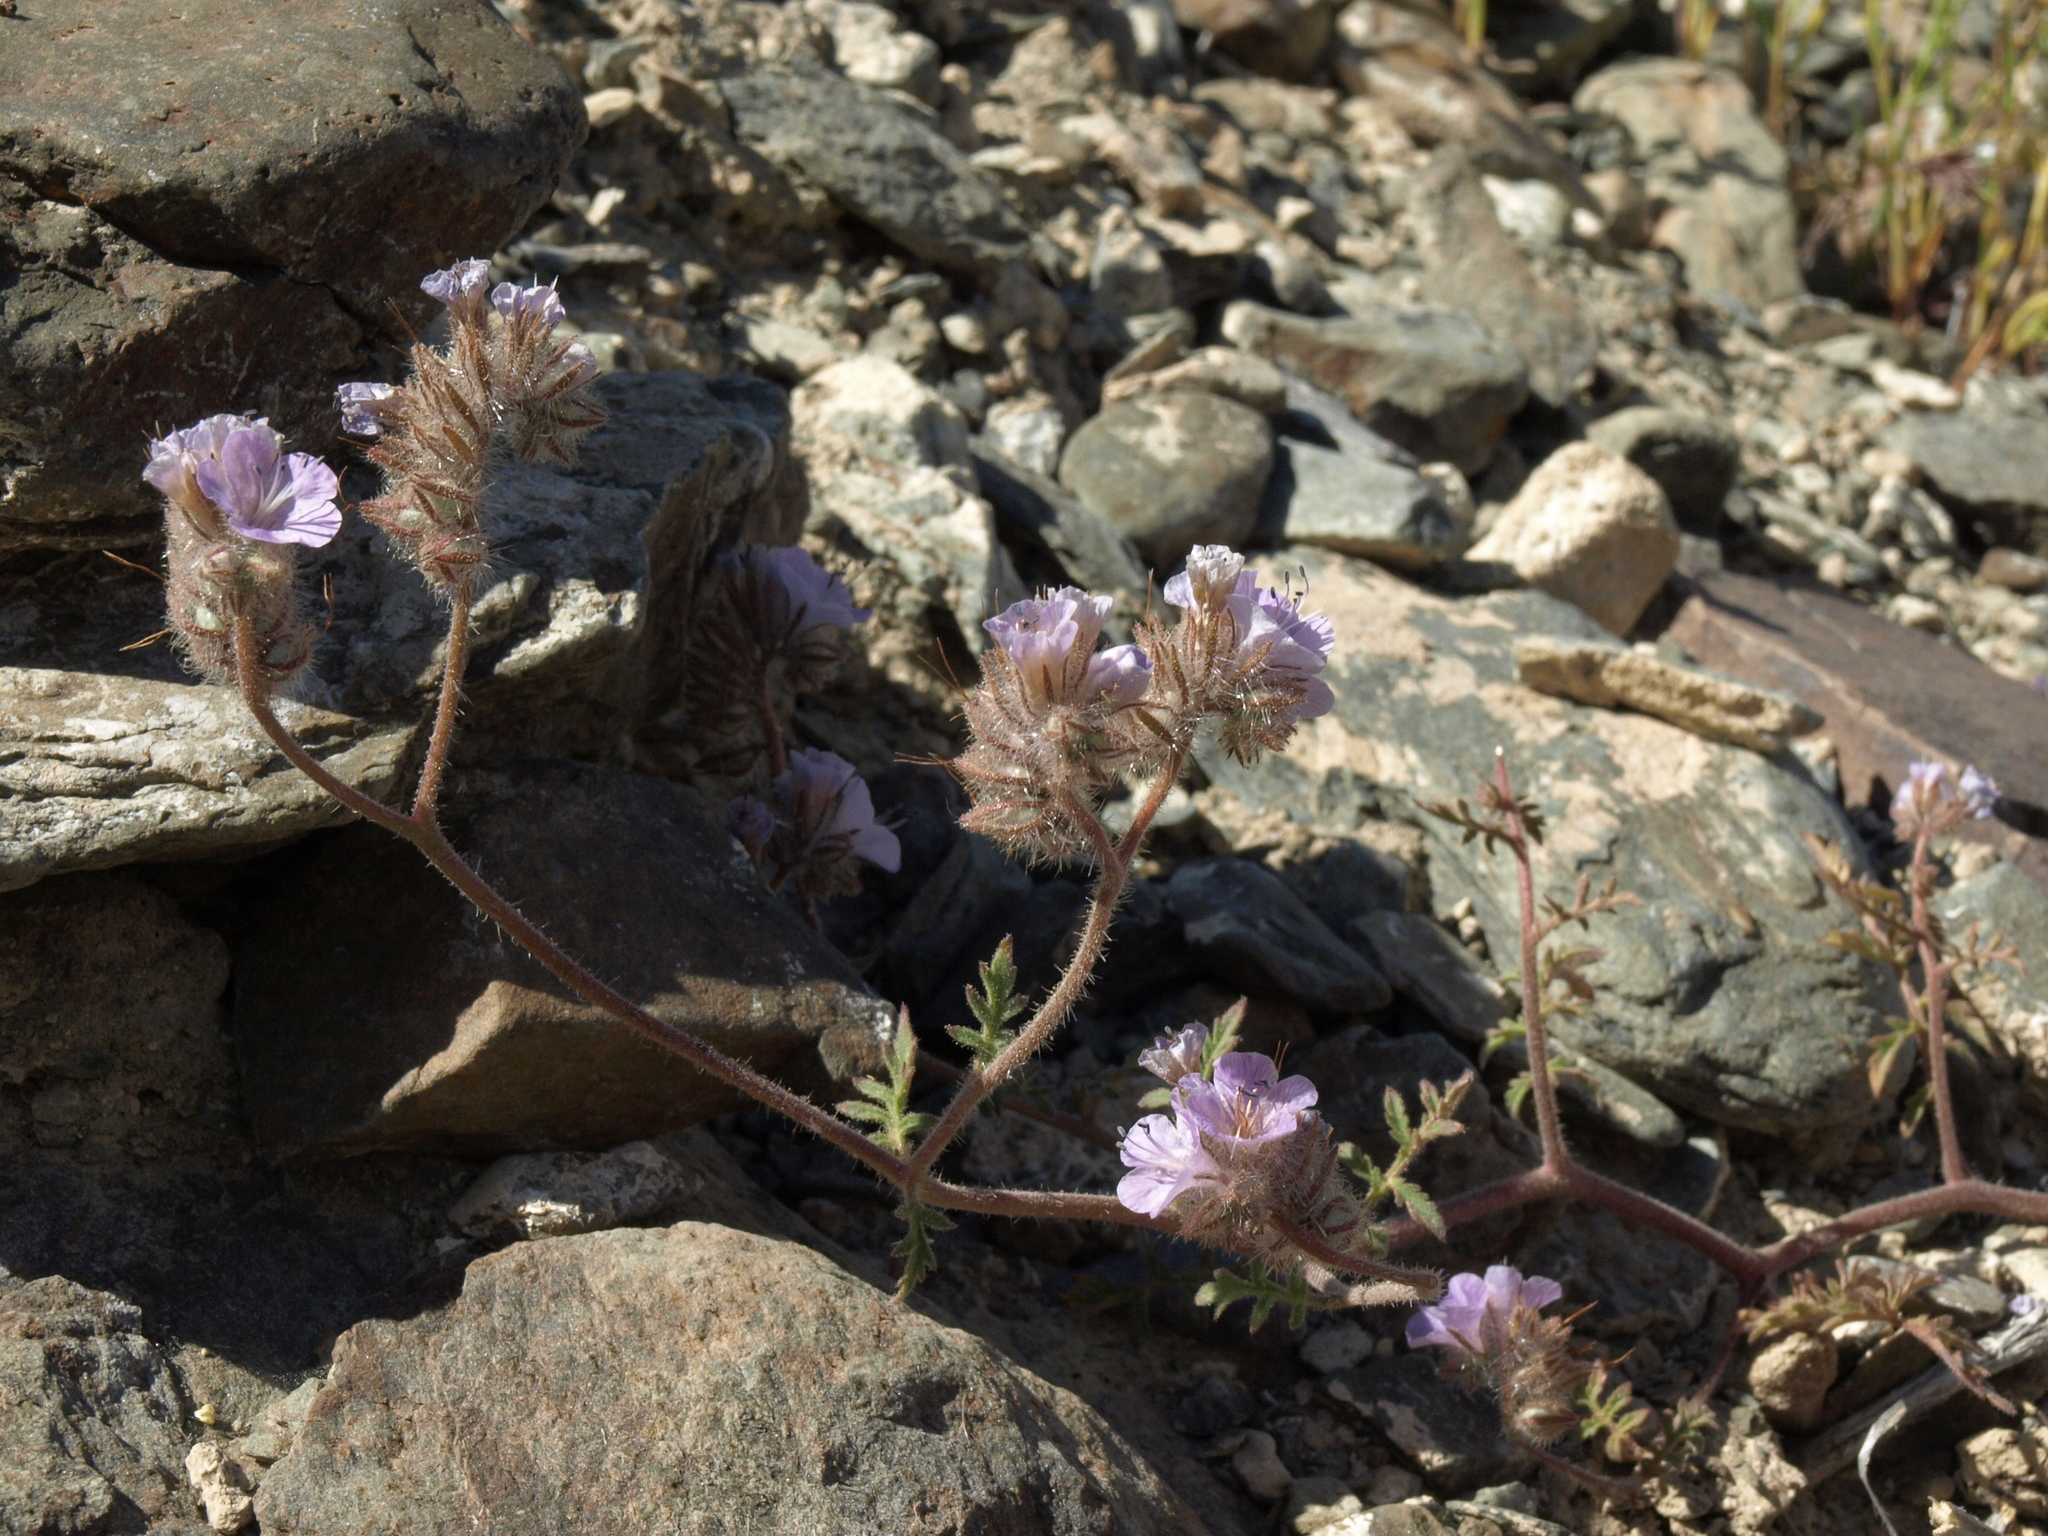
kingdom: Plantae
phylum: Tracheophyta
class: Magnoliopsida
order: Boraginales
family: Hydrophyllaceae
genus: Phacelia
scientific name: Phacelia vallis-mortae
